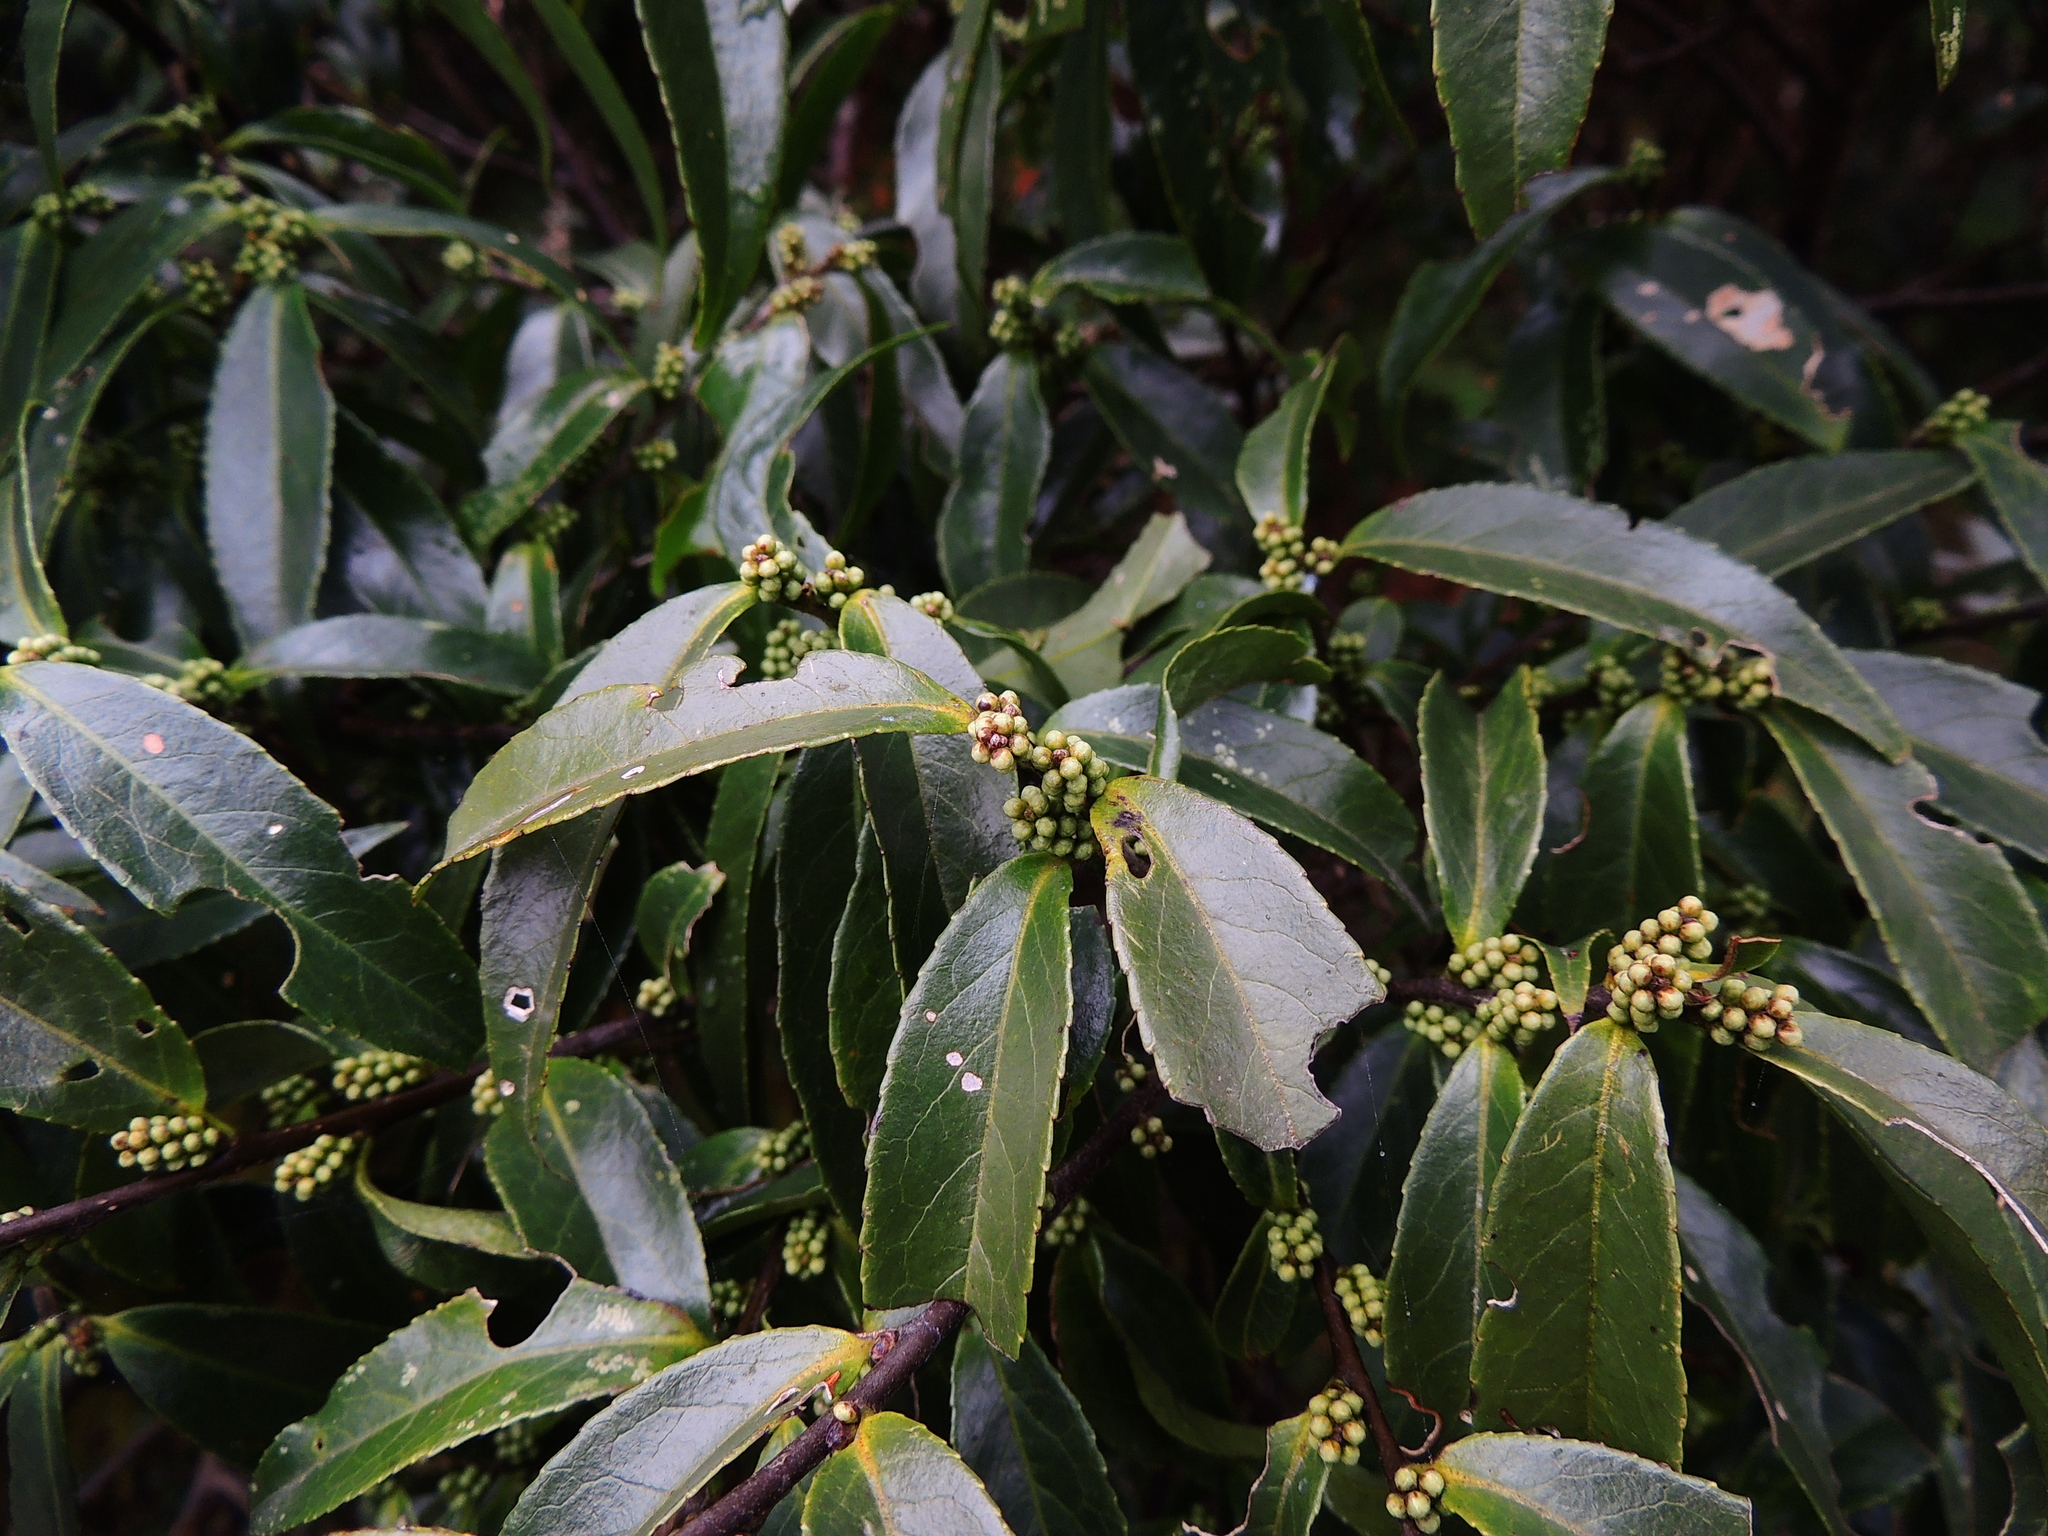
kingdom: Plantae
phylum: Tracheophyta
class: Magnoliopsida
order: Ericales
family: Symplocaceae
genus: Symplocos
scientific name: Symplocos wikstroemiifolia
